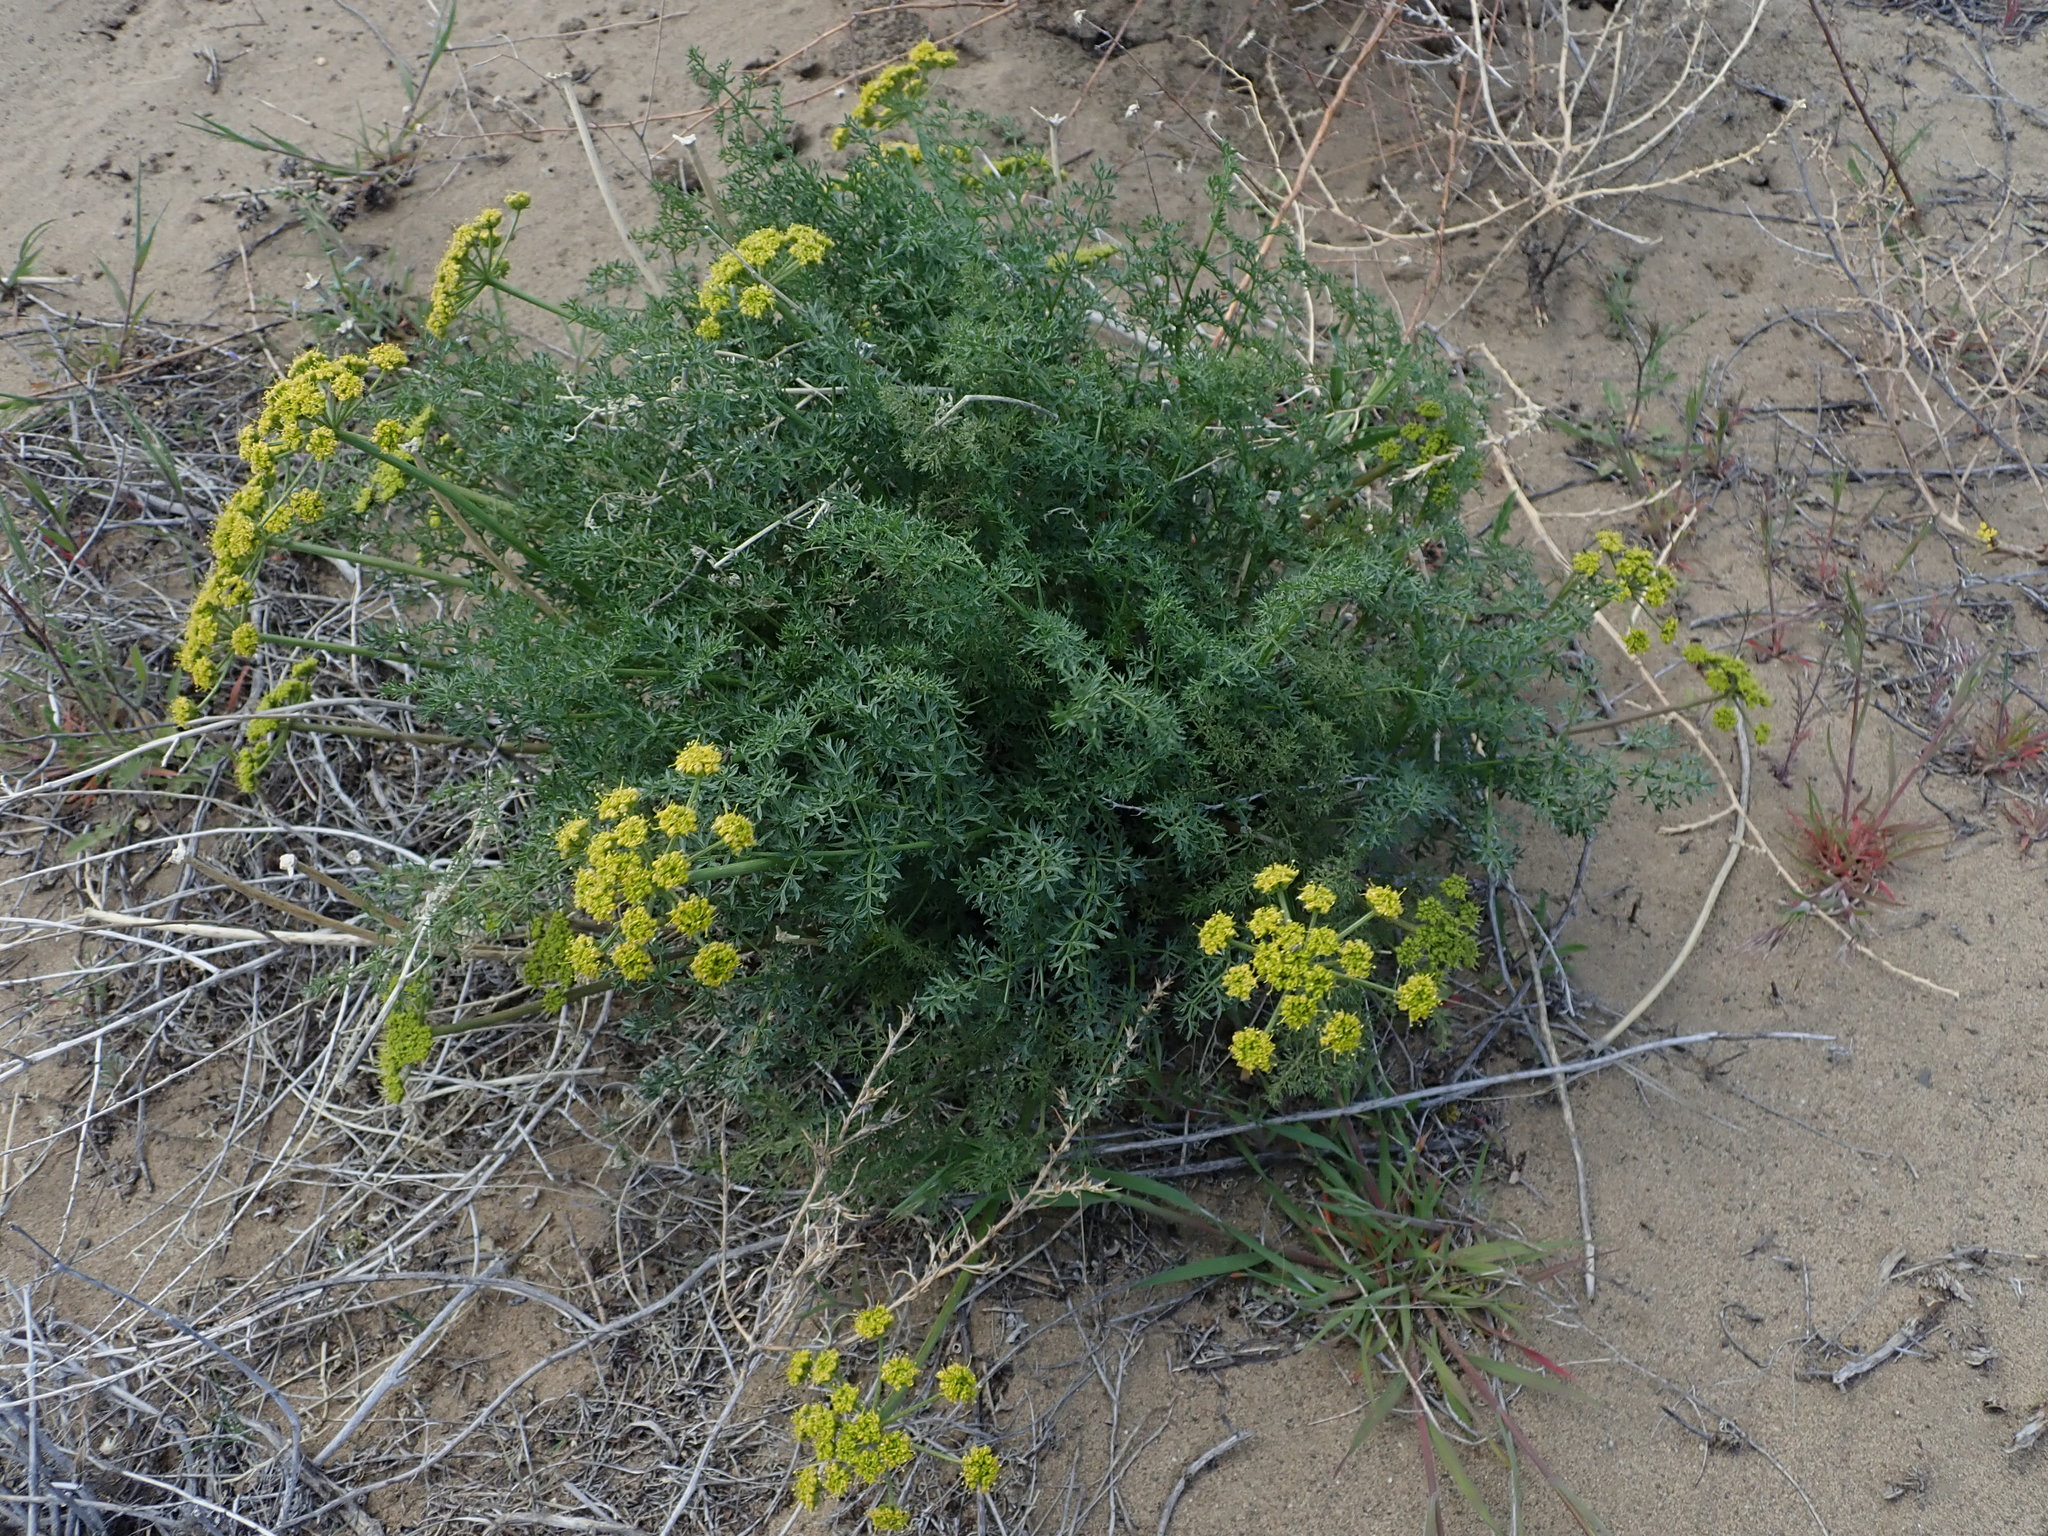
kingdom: Plantae
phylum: Tracheophyta
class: Magnoliopsida
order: Apiales
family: Apiaceae
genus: Pteryxia
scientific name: Pteryxia terebinthina
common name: Turpentine wavewing
